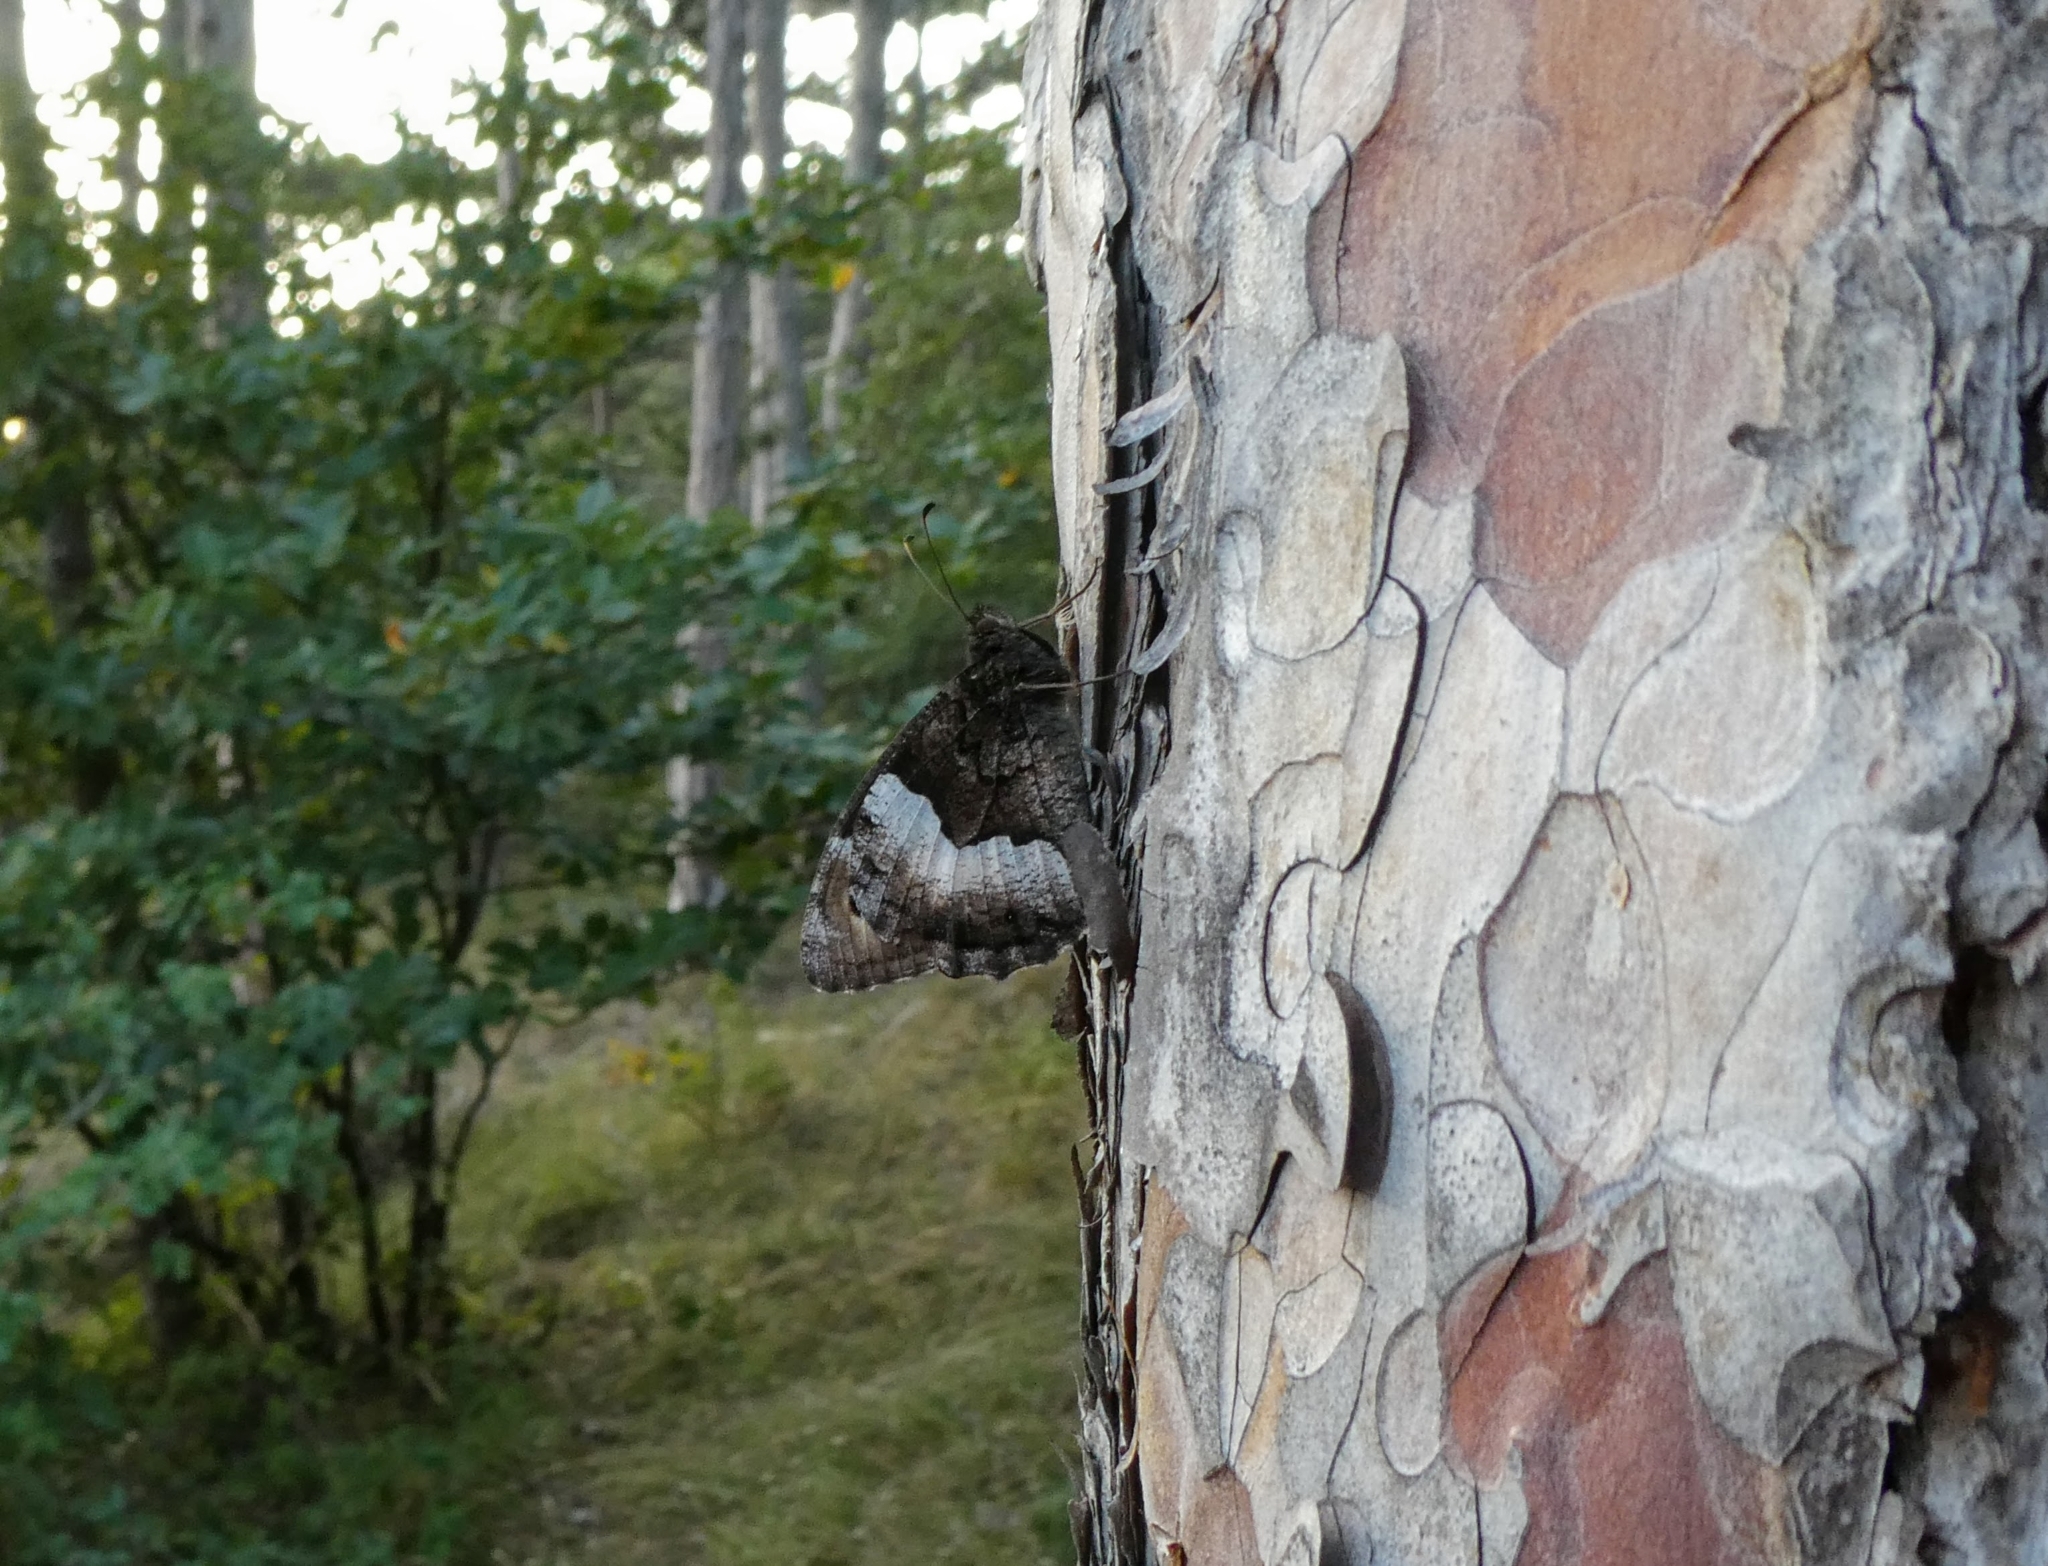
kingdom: Animalia
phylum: Arthropoda
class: Insecta
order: Lepidoptera
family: Nymphalidae
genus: Hipparchia
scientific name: Hipparchia hermione
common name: Rock grayling
